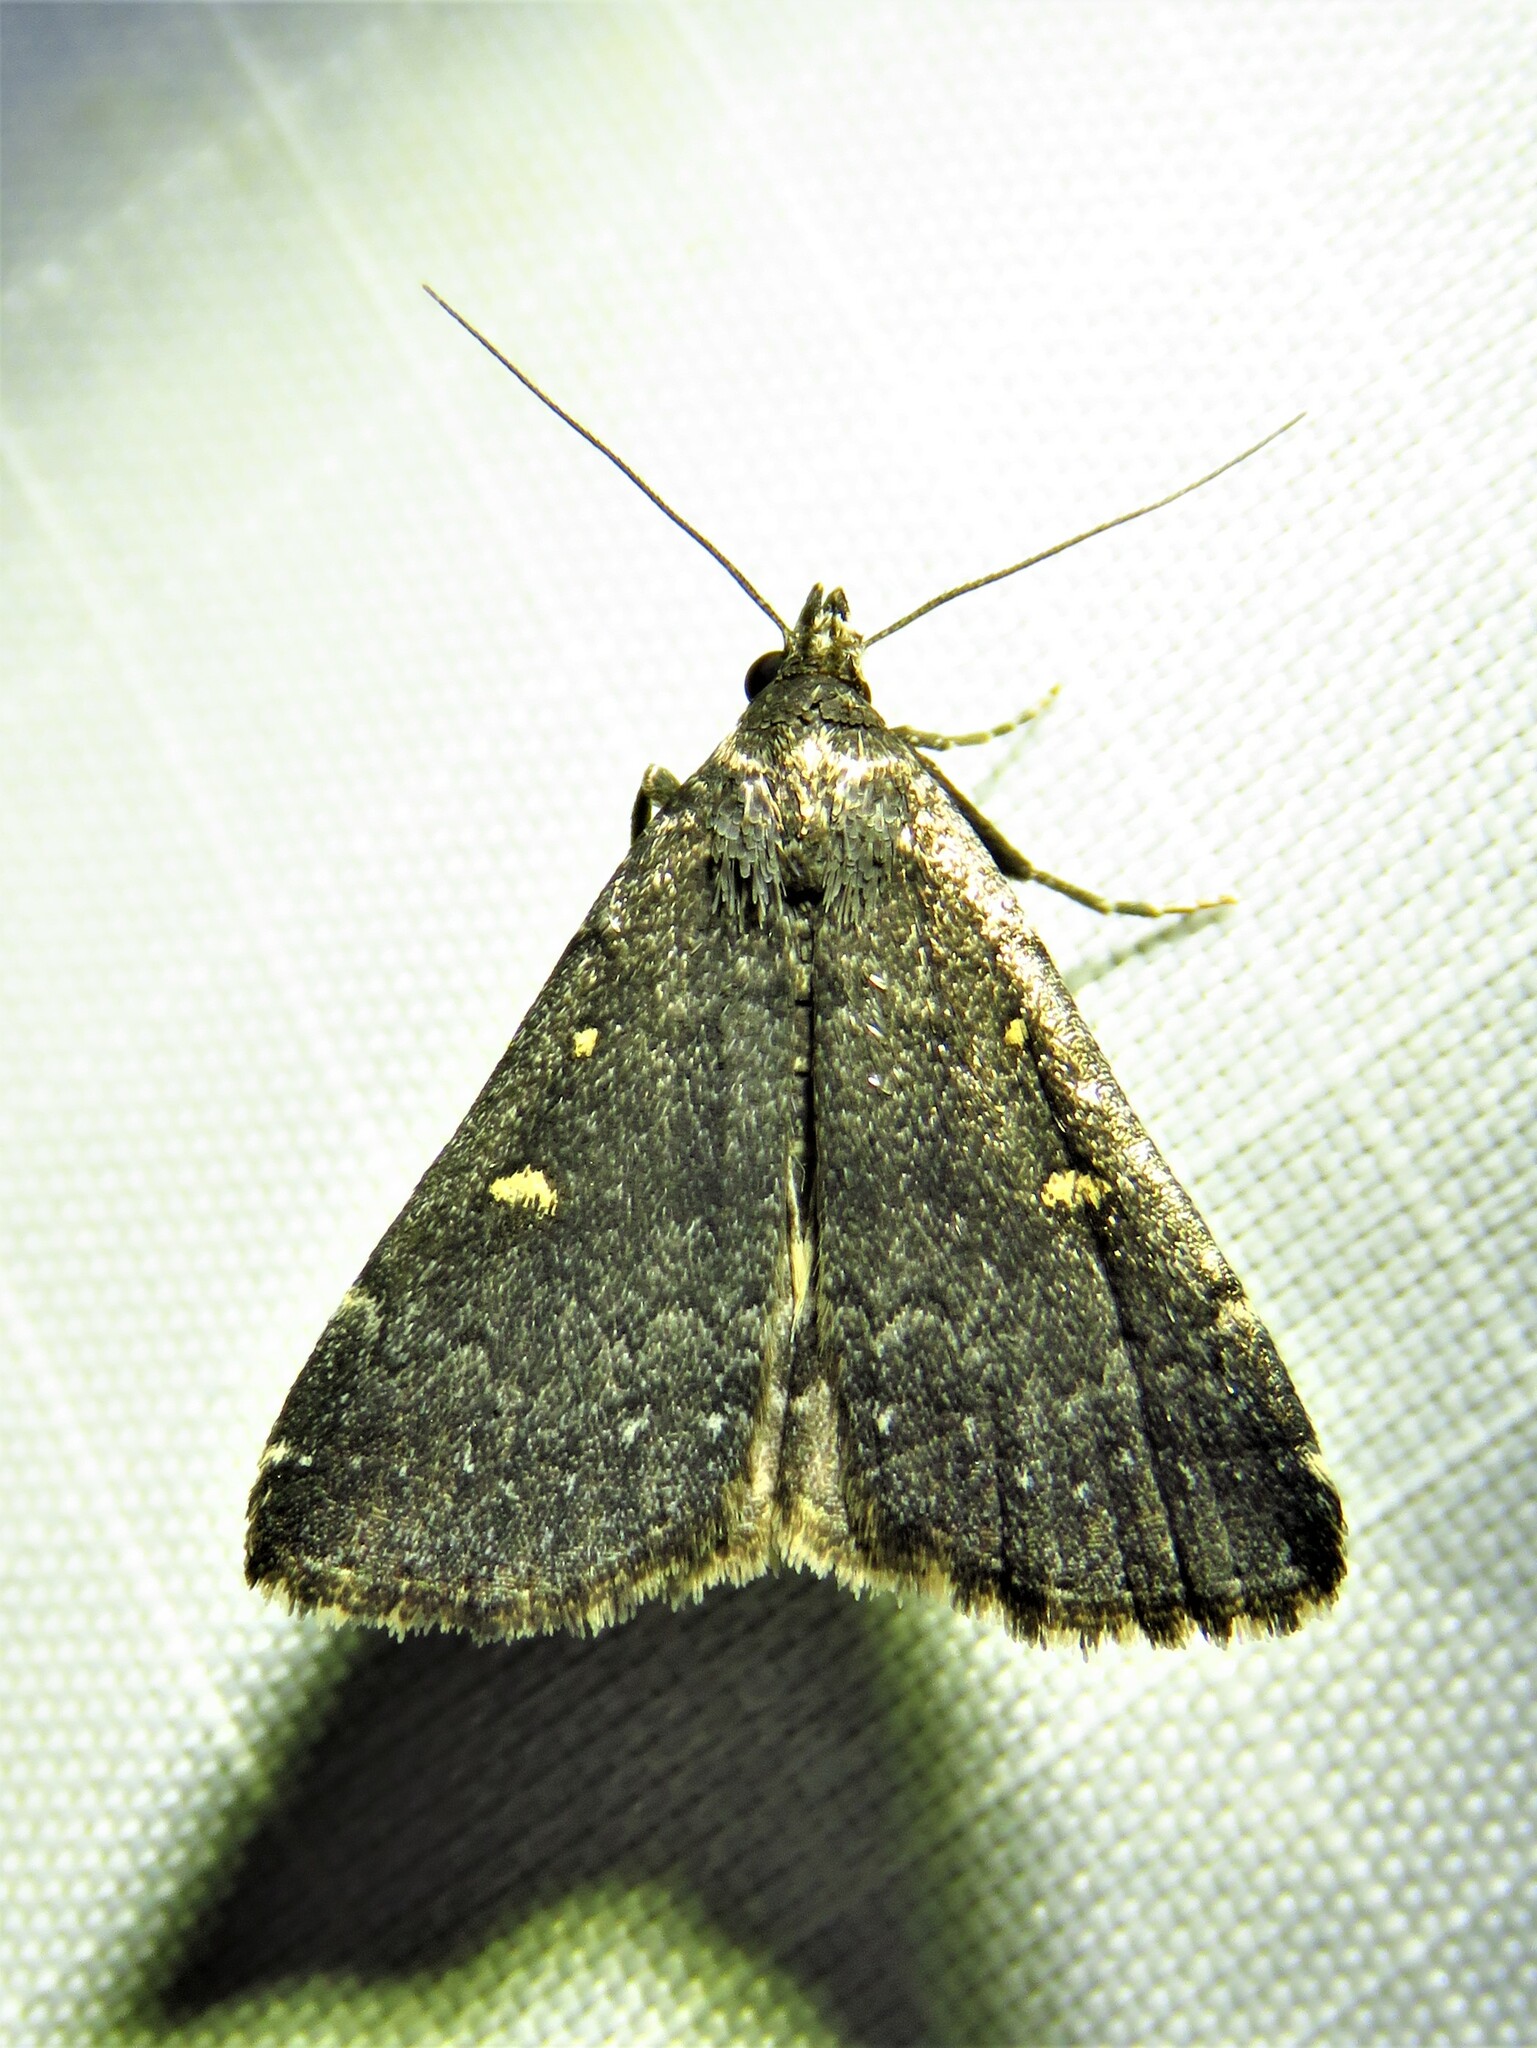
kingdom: Animalia
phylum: Arthropoda
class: Insecta
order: Lepidoptera
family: Erebidae
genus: Tetanolita
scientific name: Tetanolita mynesalis
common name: Smoky tetanolita moth
